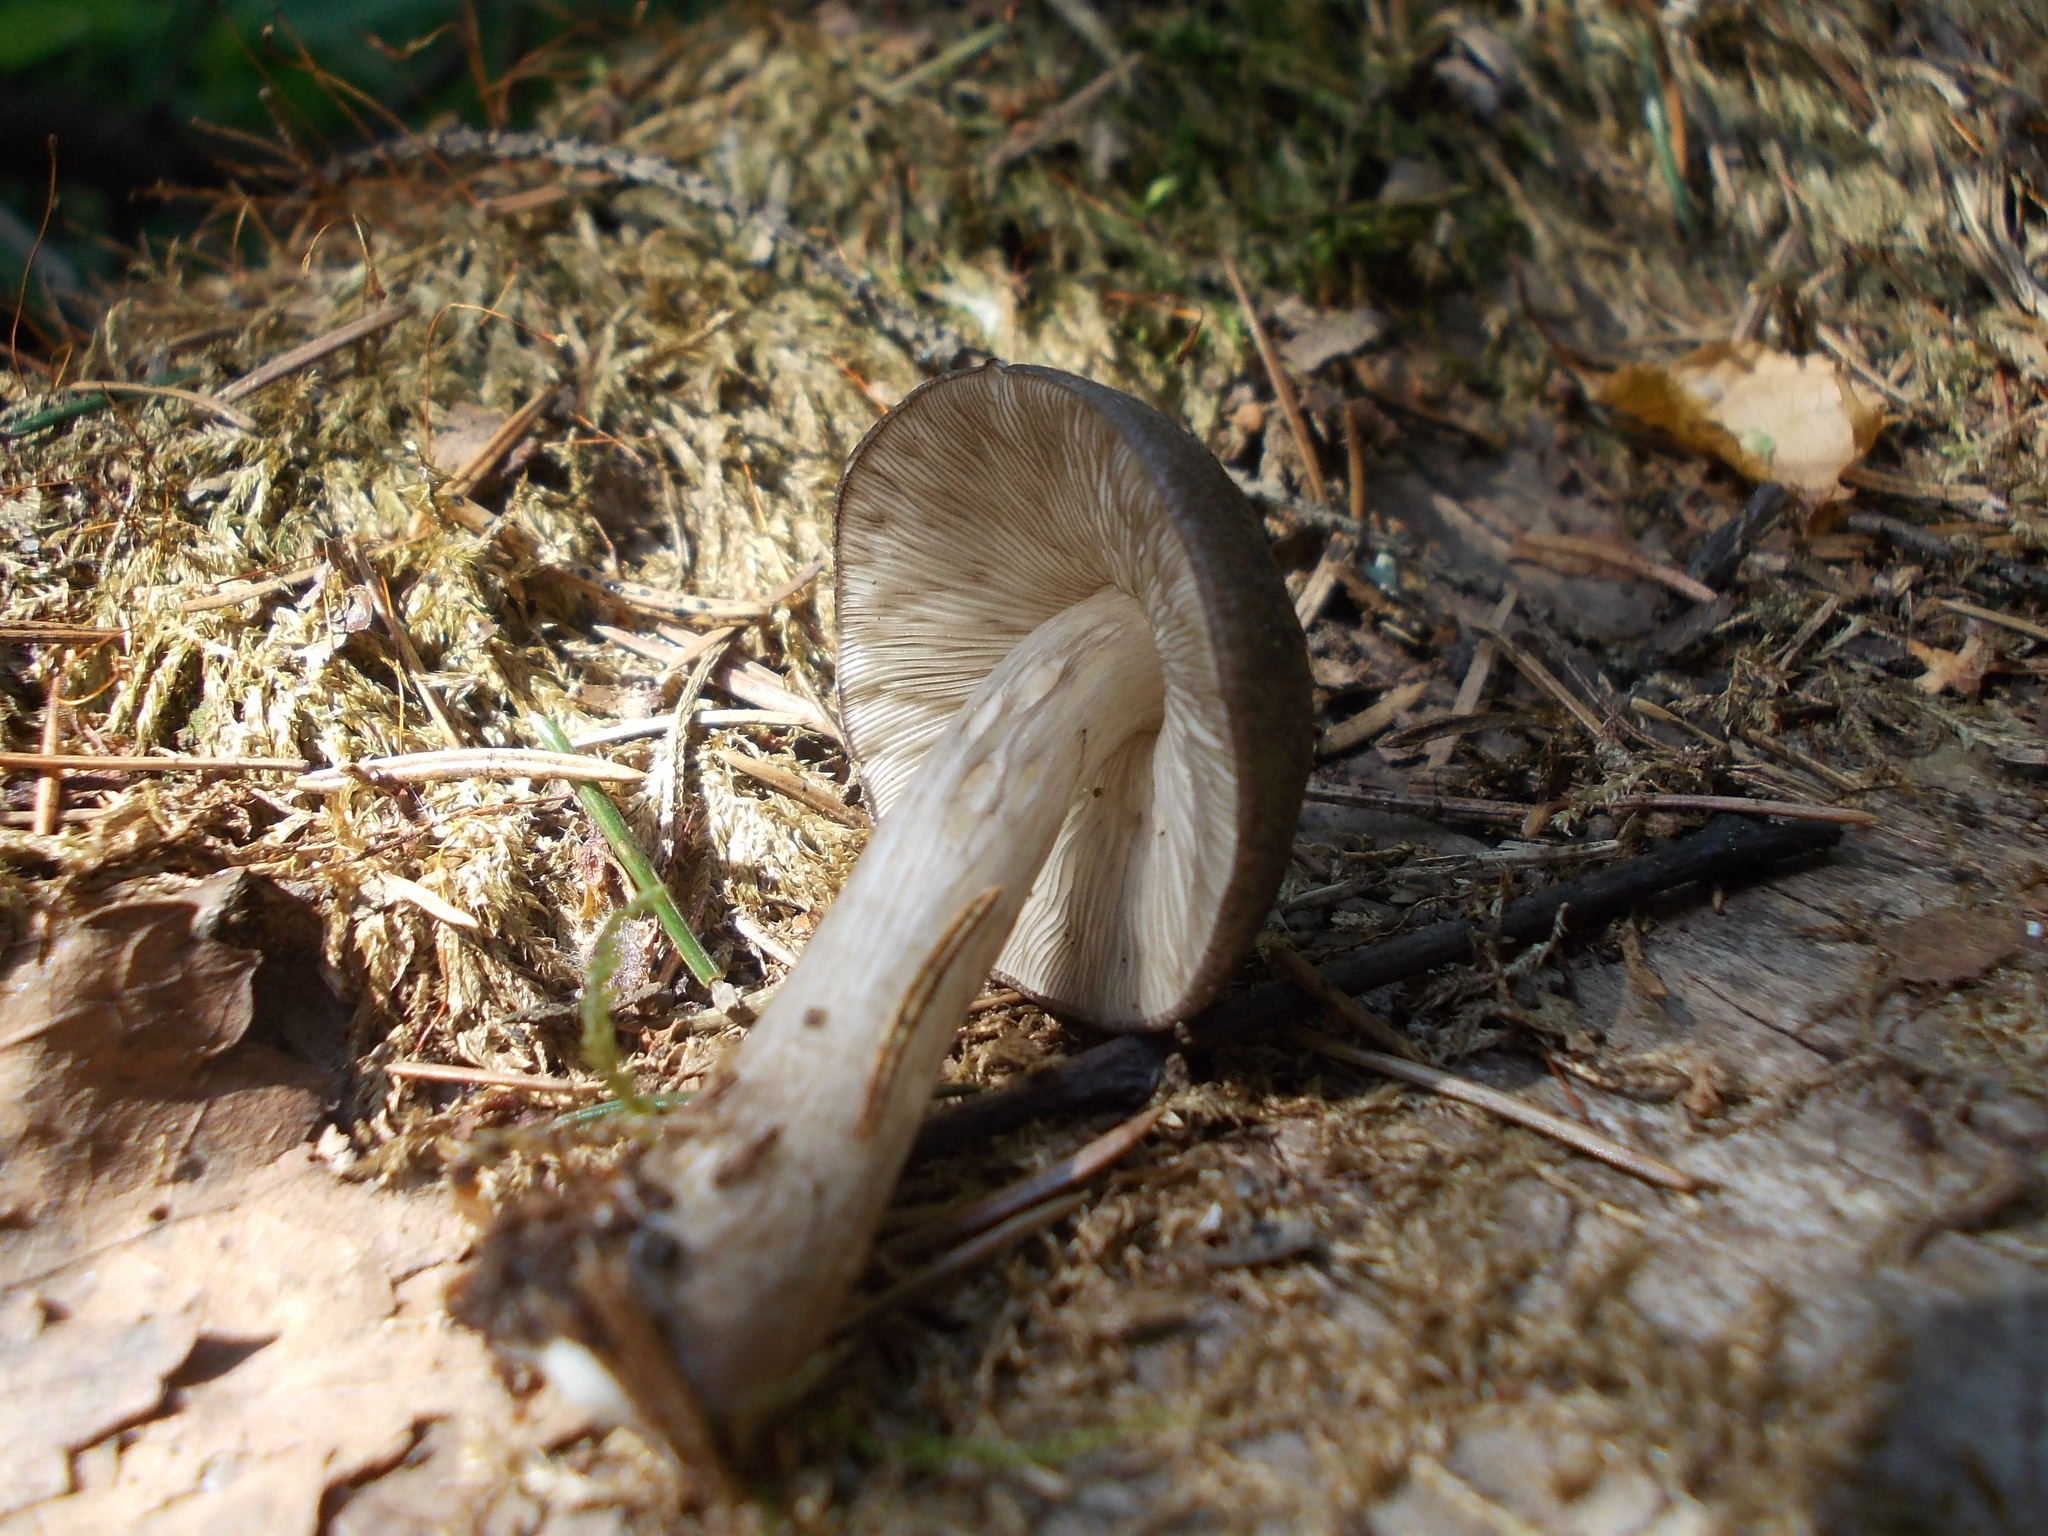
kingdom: Fungi
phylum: Basidiomycota
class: Agaricomycetes
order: Agaricales
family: Pluteaceae
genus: Pluteus
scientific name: Pluteus atromarginatus
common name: Blackedged shield
